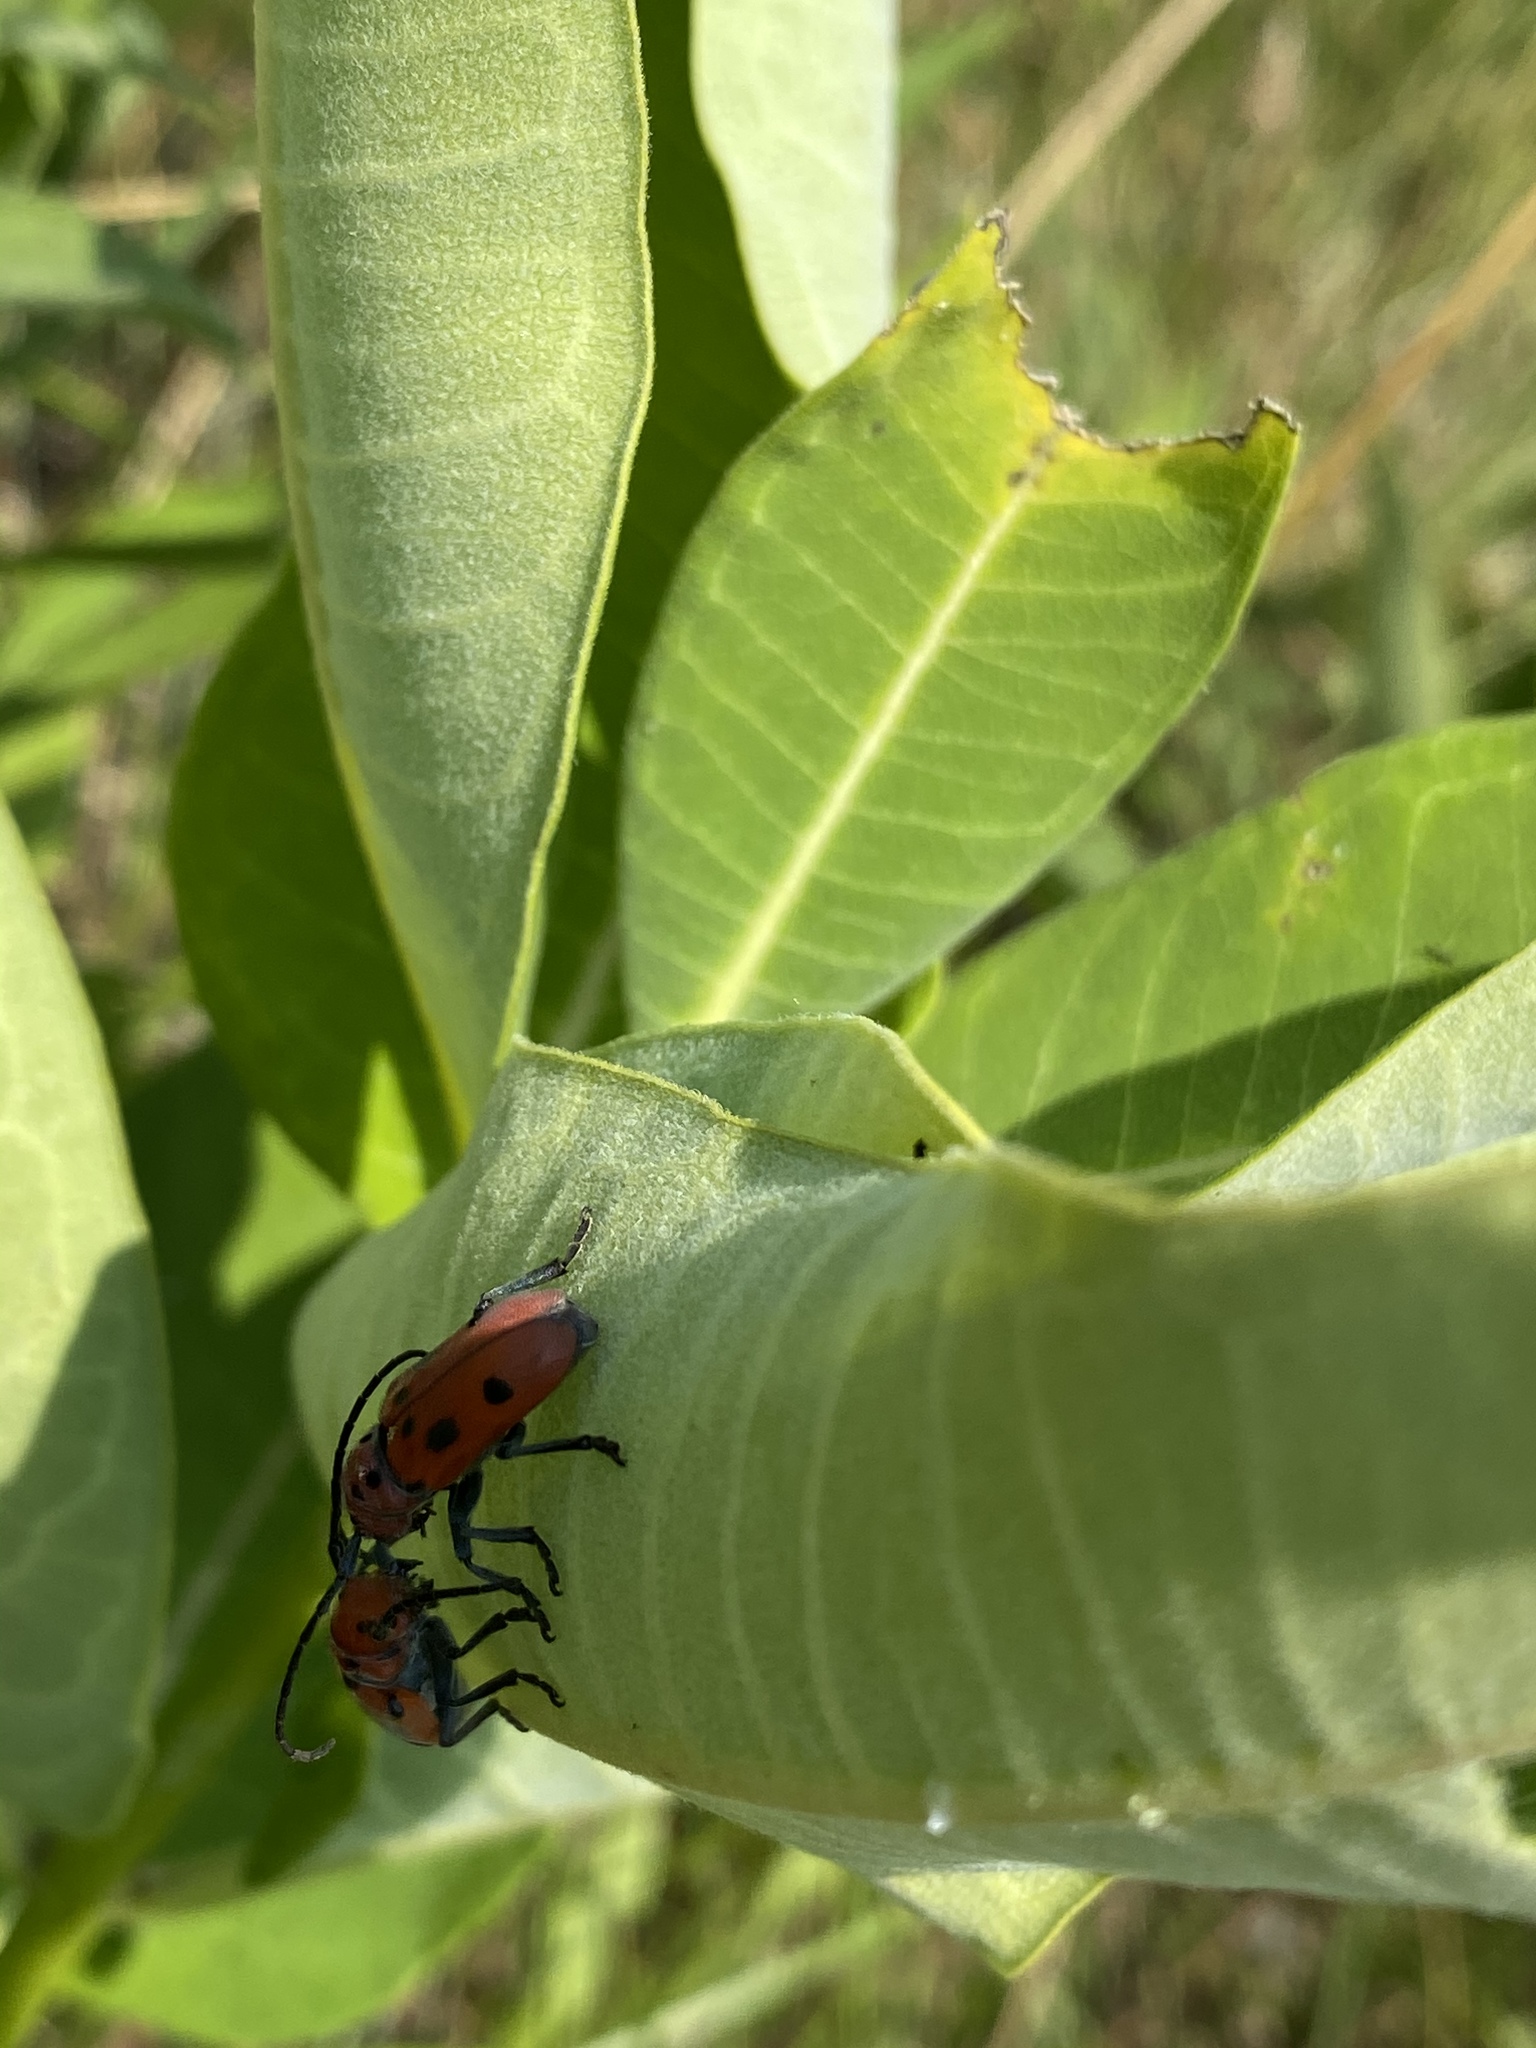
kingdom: Animalia
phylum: Arthropoda
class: Insecta
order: Coleoptera
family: Cerambycidae
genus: Tetraopes
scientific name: Tetraopes tetrophthalmus
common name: Red milkweed beetle
